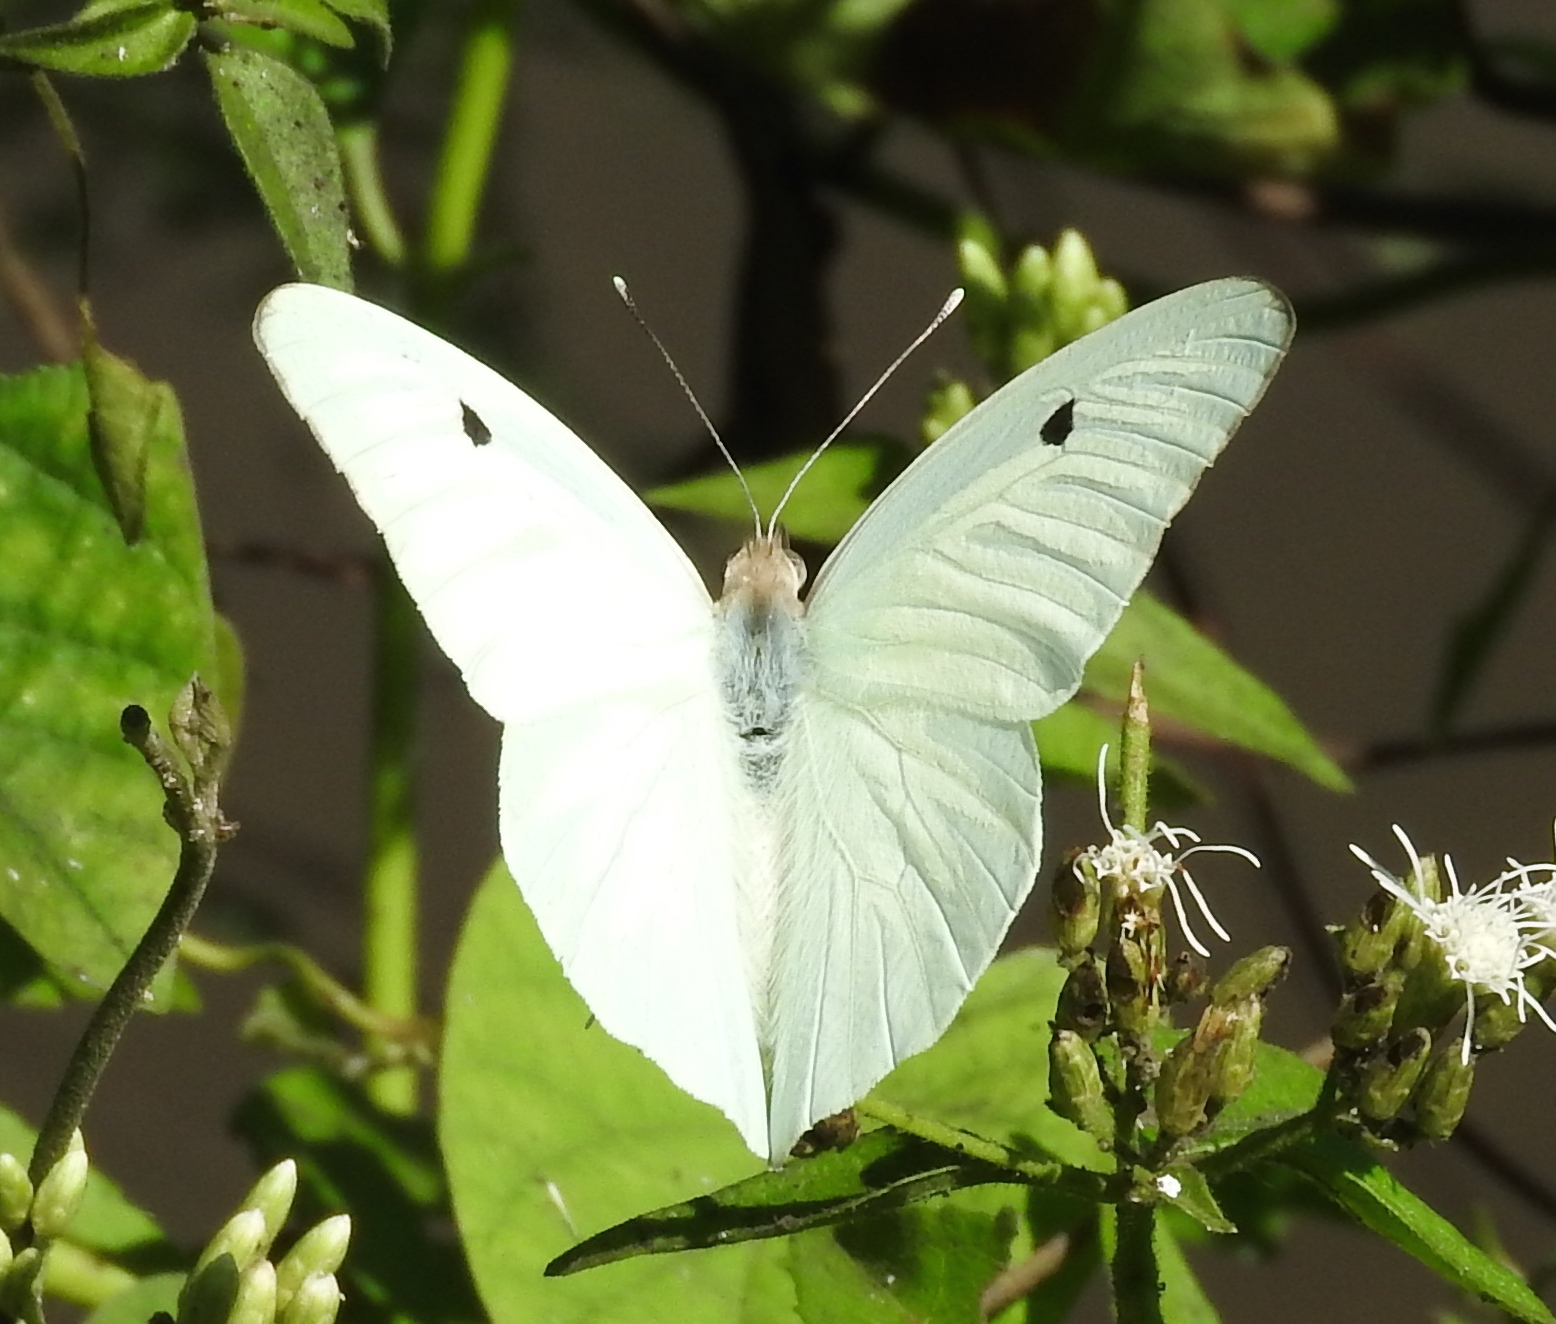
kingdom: Animalia
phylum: Arthropoda
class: Insecta
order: Lepidoptera
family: Pieridae
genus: Ganyra
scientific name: Ganyra josephina
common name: Giant white
